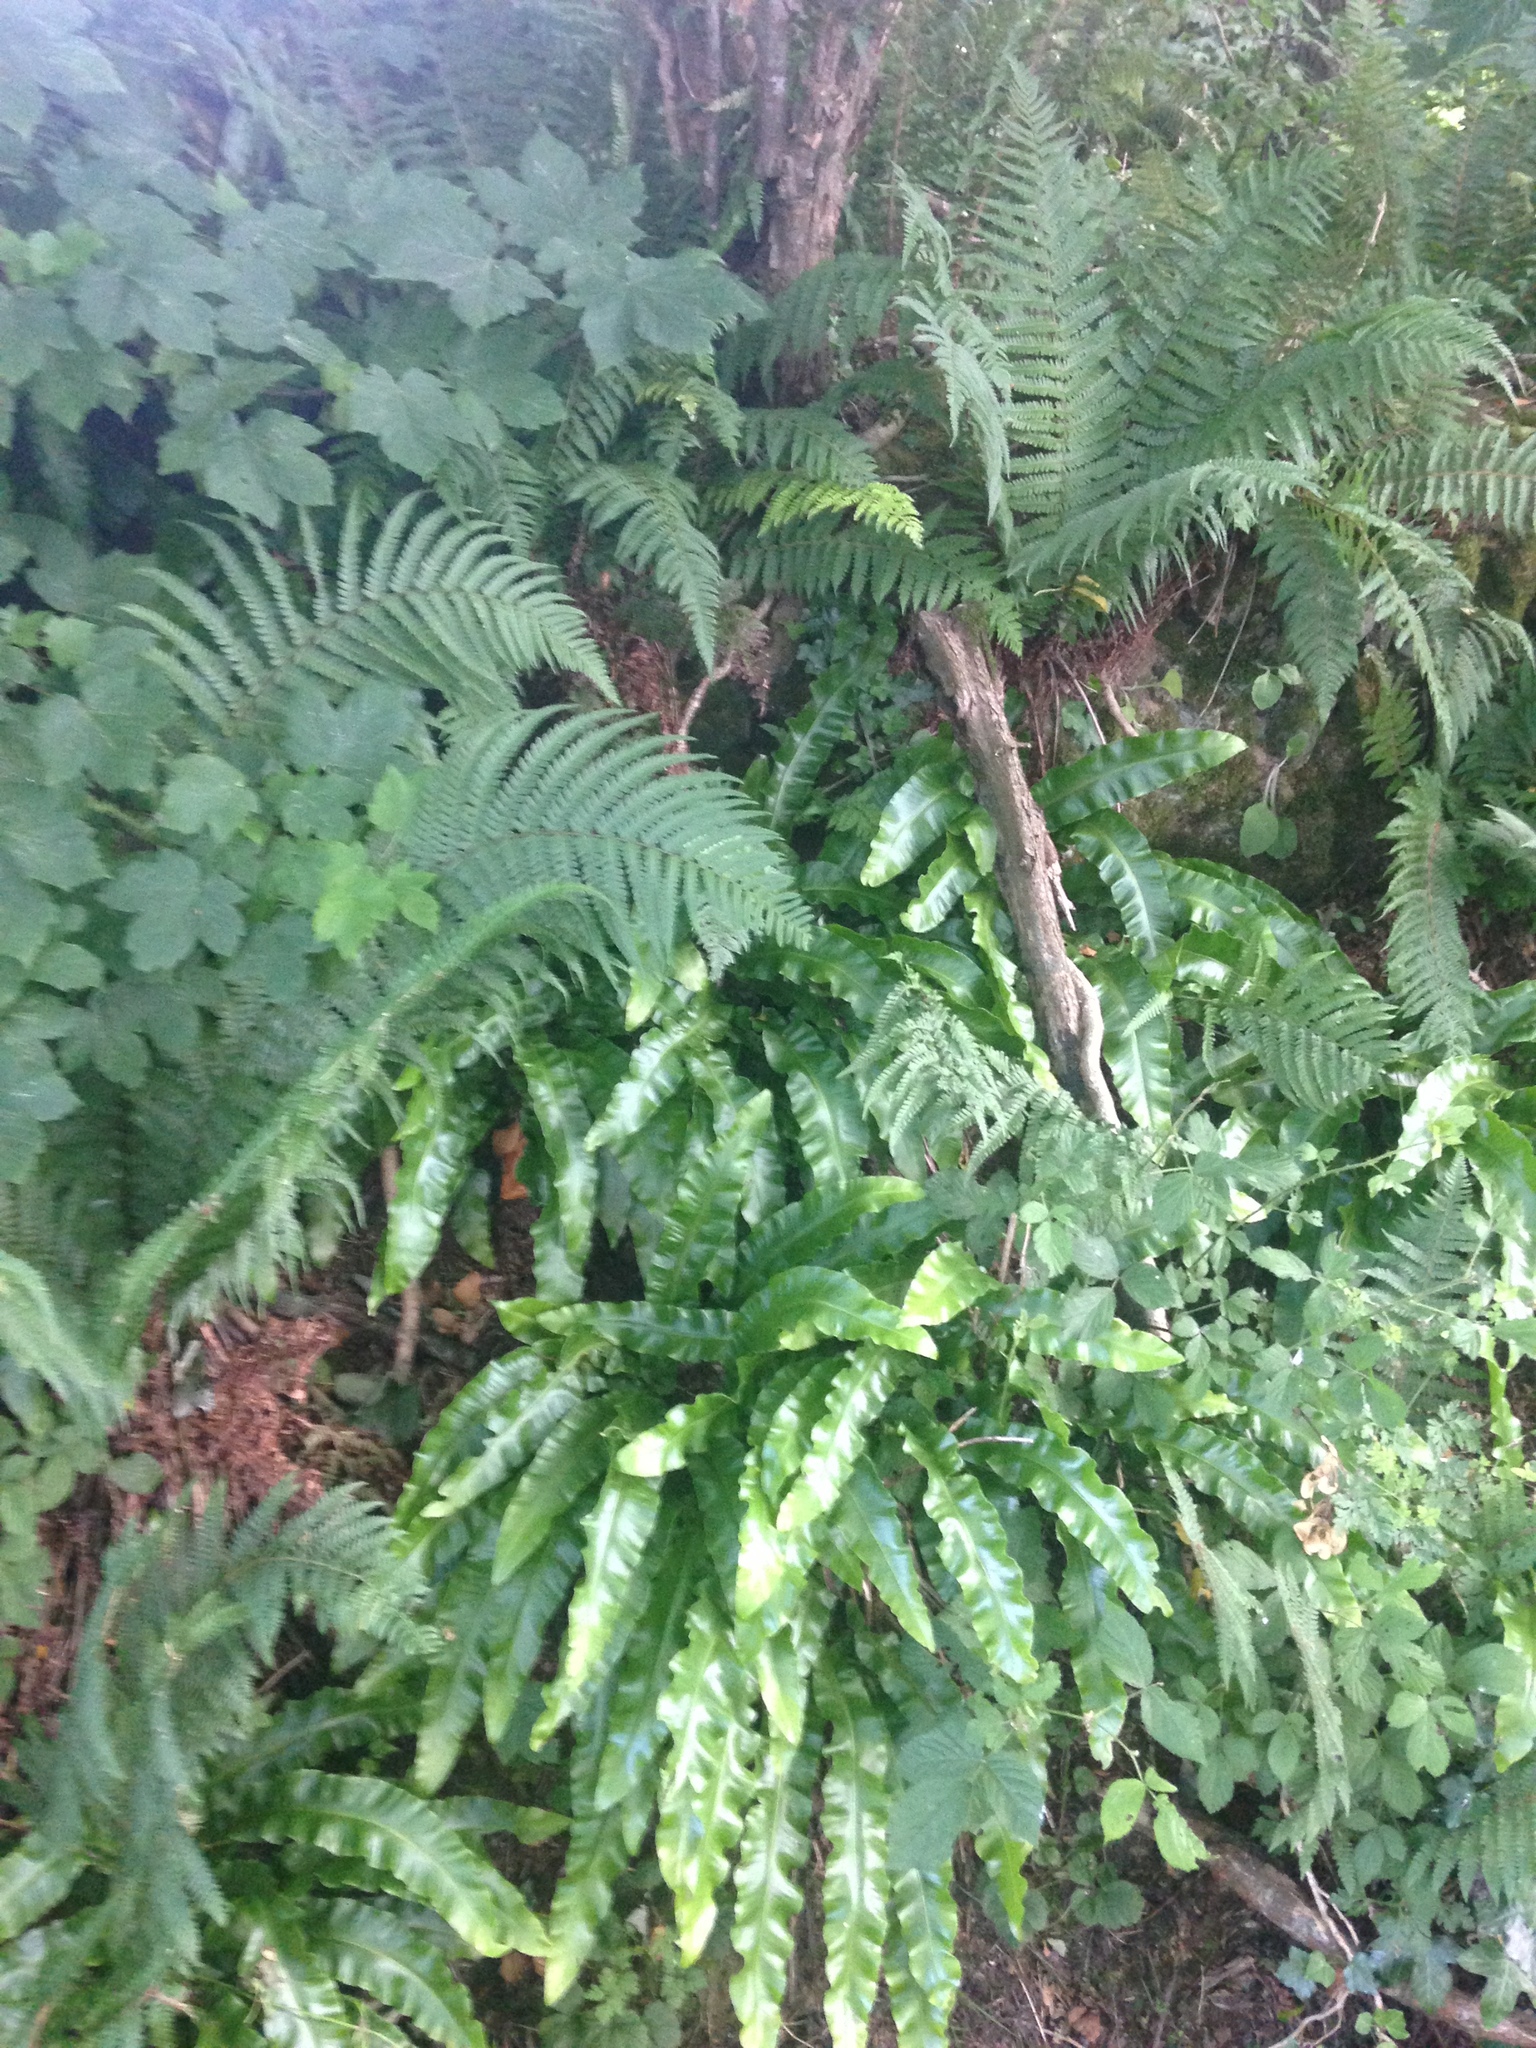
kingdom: Plantae
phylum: Tracheophyta
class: Polypodiopsida
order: Polypodiales
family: Aspleniaceae
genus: Asplenium
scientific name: Asplenium scolopendrium
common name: Hart's-tongue fern
